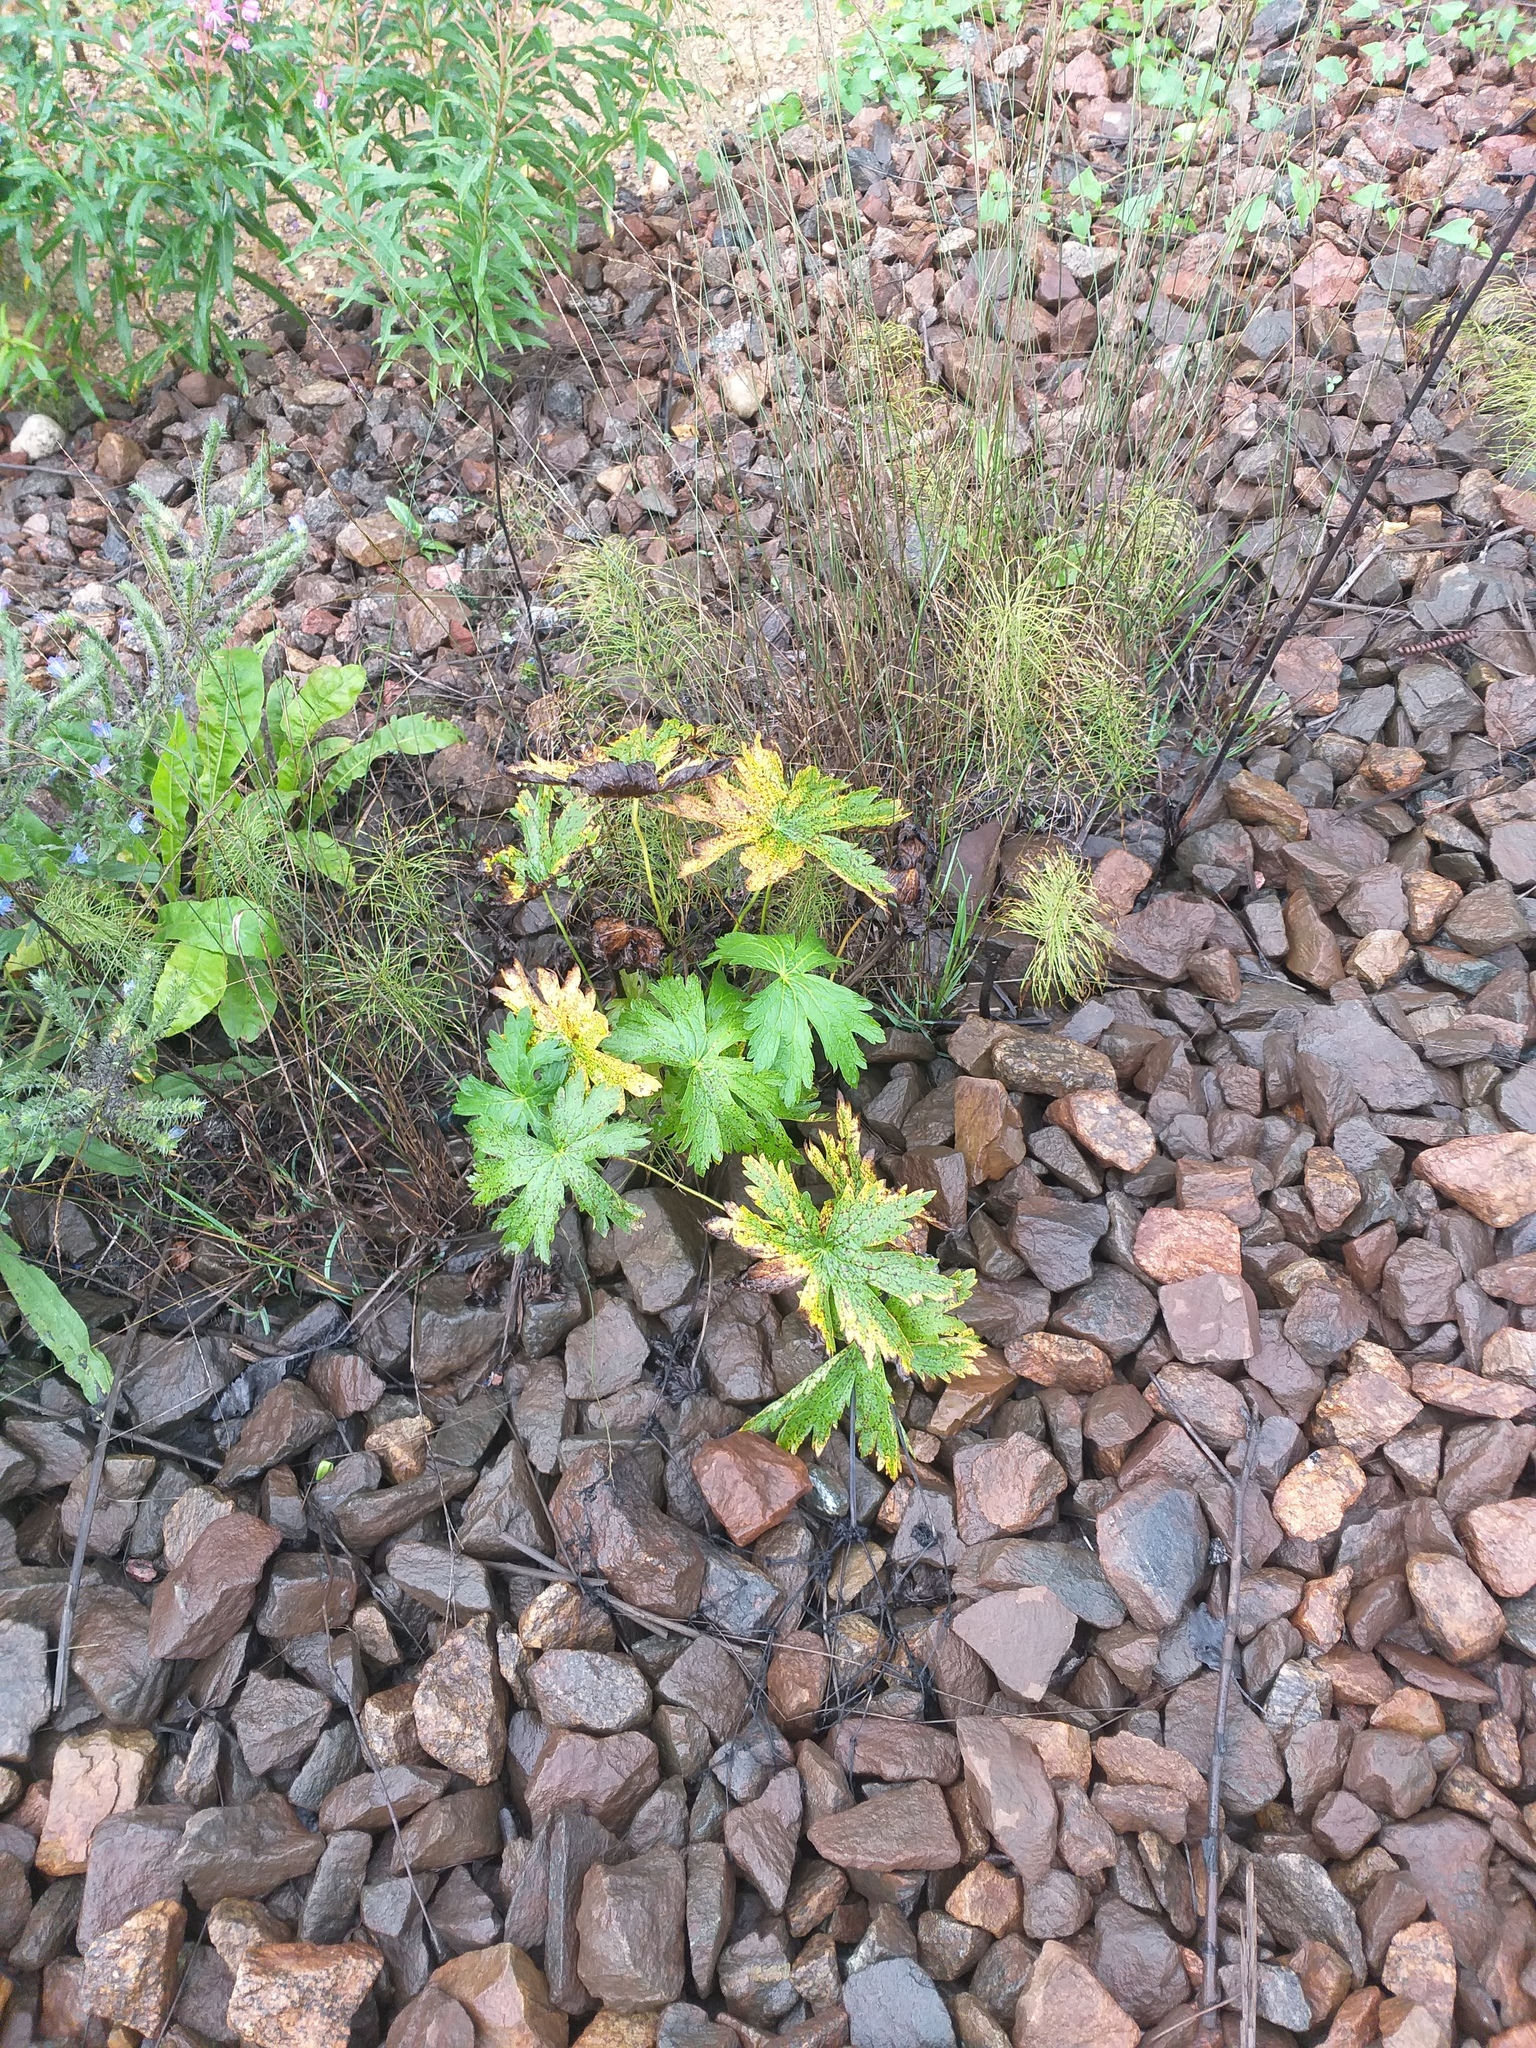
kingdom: Plantae
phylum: Tracheophyta
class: Magnoliopsida
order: Geraniales
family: Geraniaceae
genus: Geranium
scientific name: Geranium sylvaticum
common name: Wood crane's-bill
